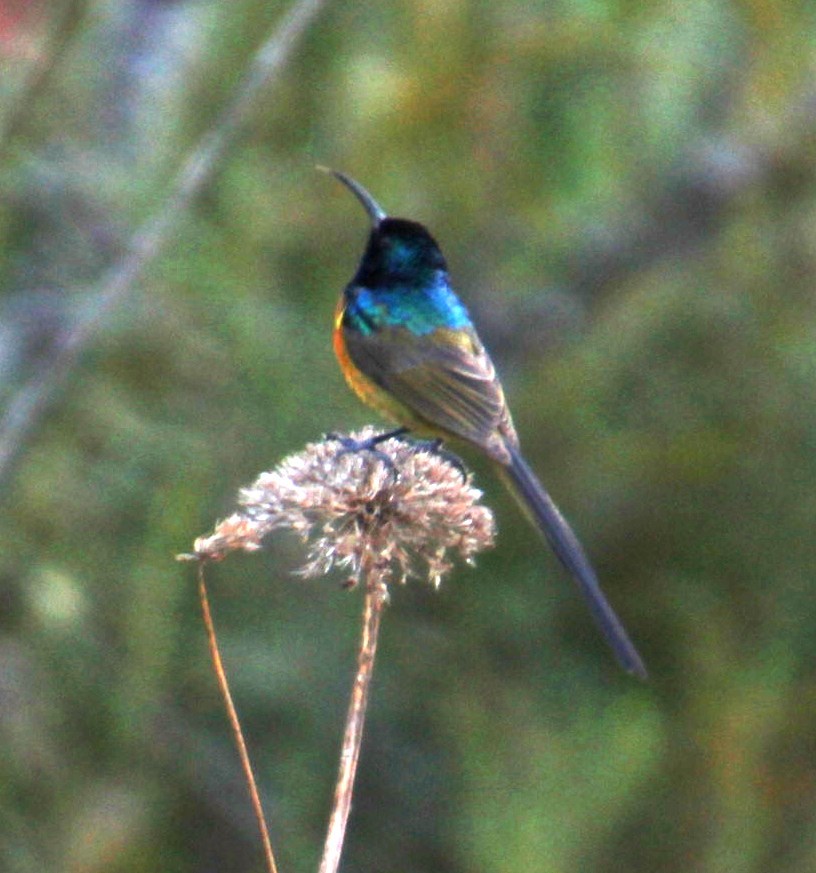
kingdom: Plantae
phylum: Tracheophyta
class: Magnoliopsida
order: Asterales
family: Asteraceae
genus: Osmitopsis
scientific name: Osmitopsis asteriscoides
